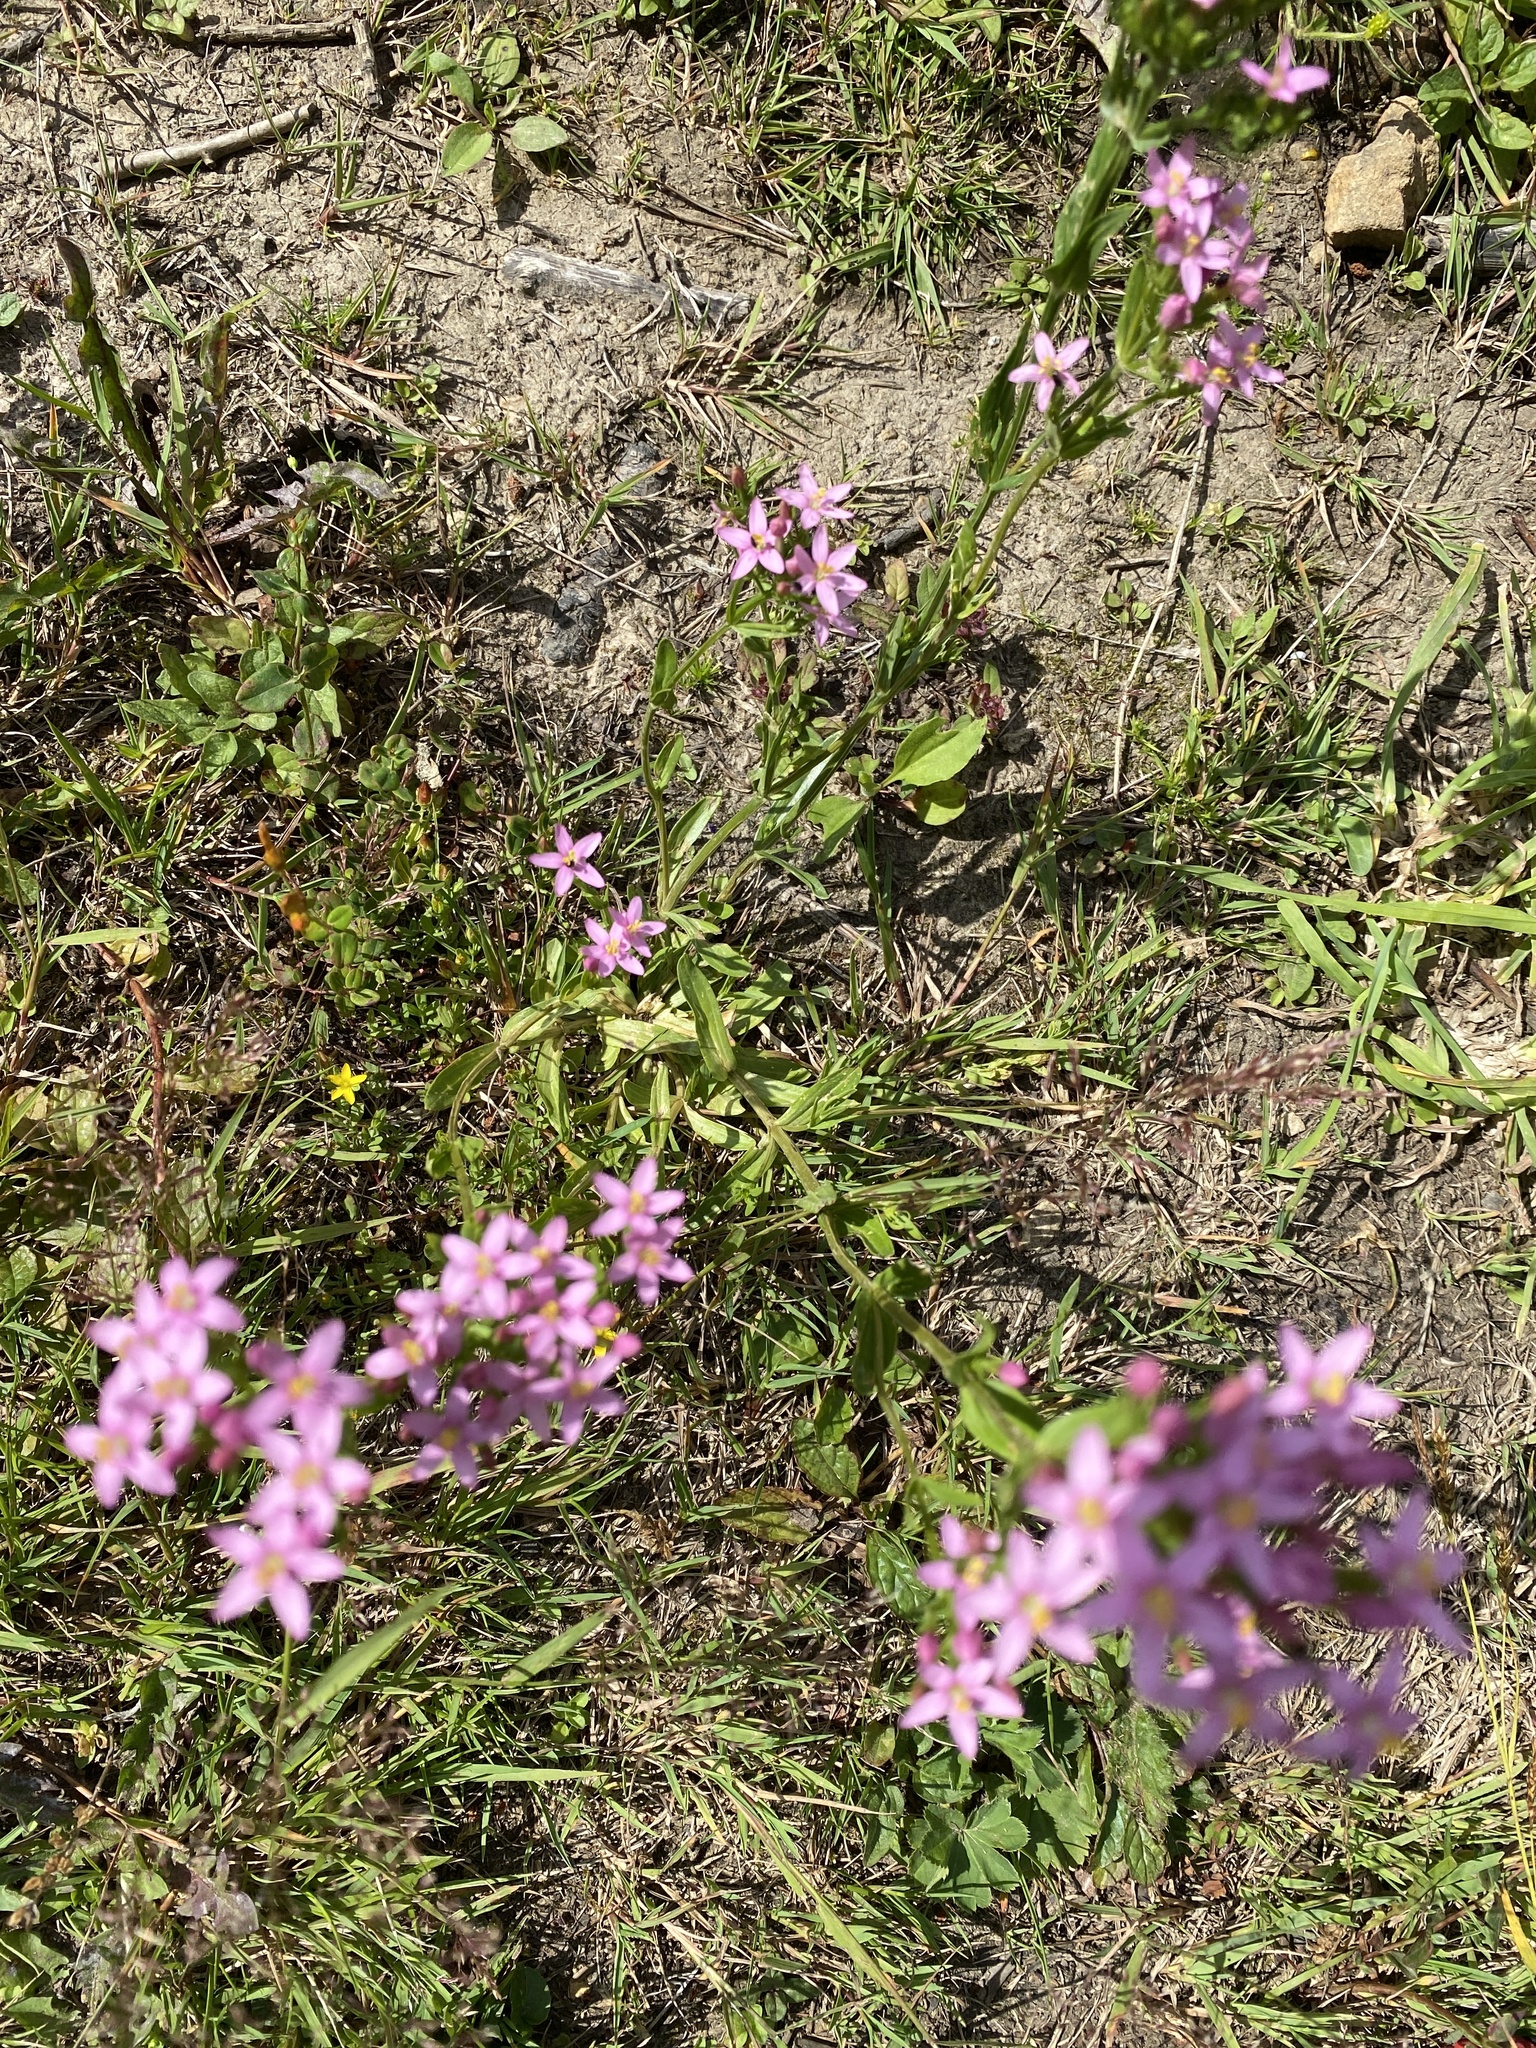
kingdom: Plantae
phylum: Tracheophyta
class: Magnoliopsida
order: Gentianales
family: Gentianaceae
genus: Centaurium
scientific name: Centaurium erythraea
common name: Common centaury
